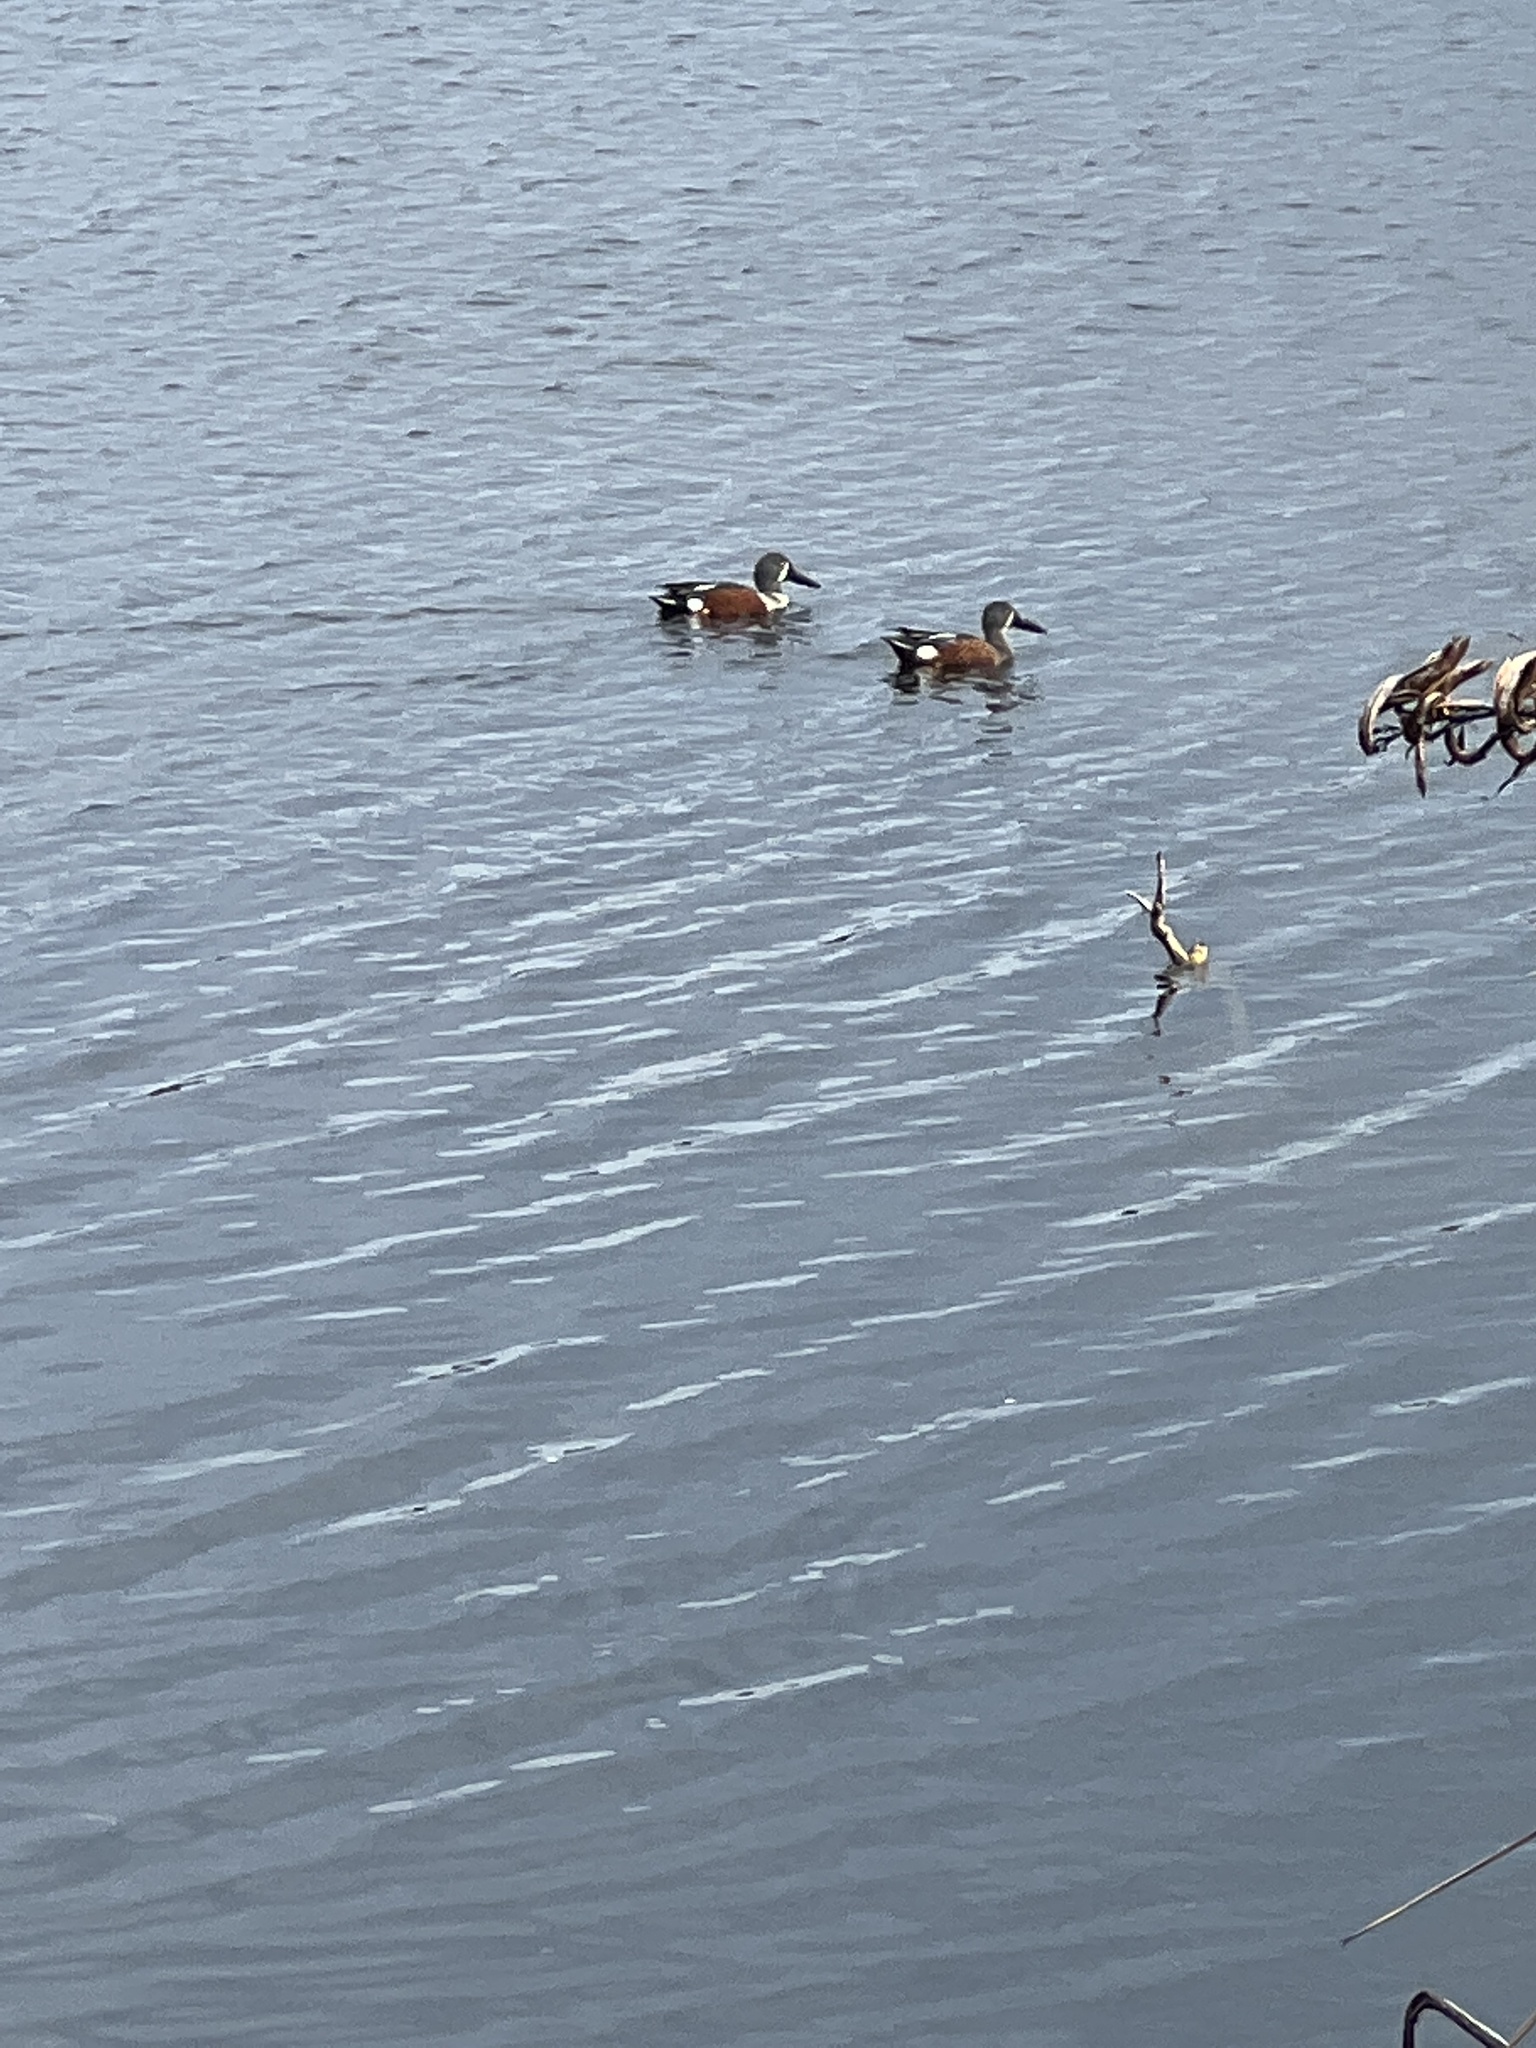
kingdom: Animalia
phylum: Chordata
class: Aves
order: Anseriformes
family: Anatidae
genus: Spatula
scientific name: Spatula rhynchotis
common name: Australian shoveler
